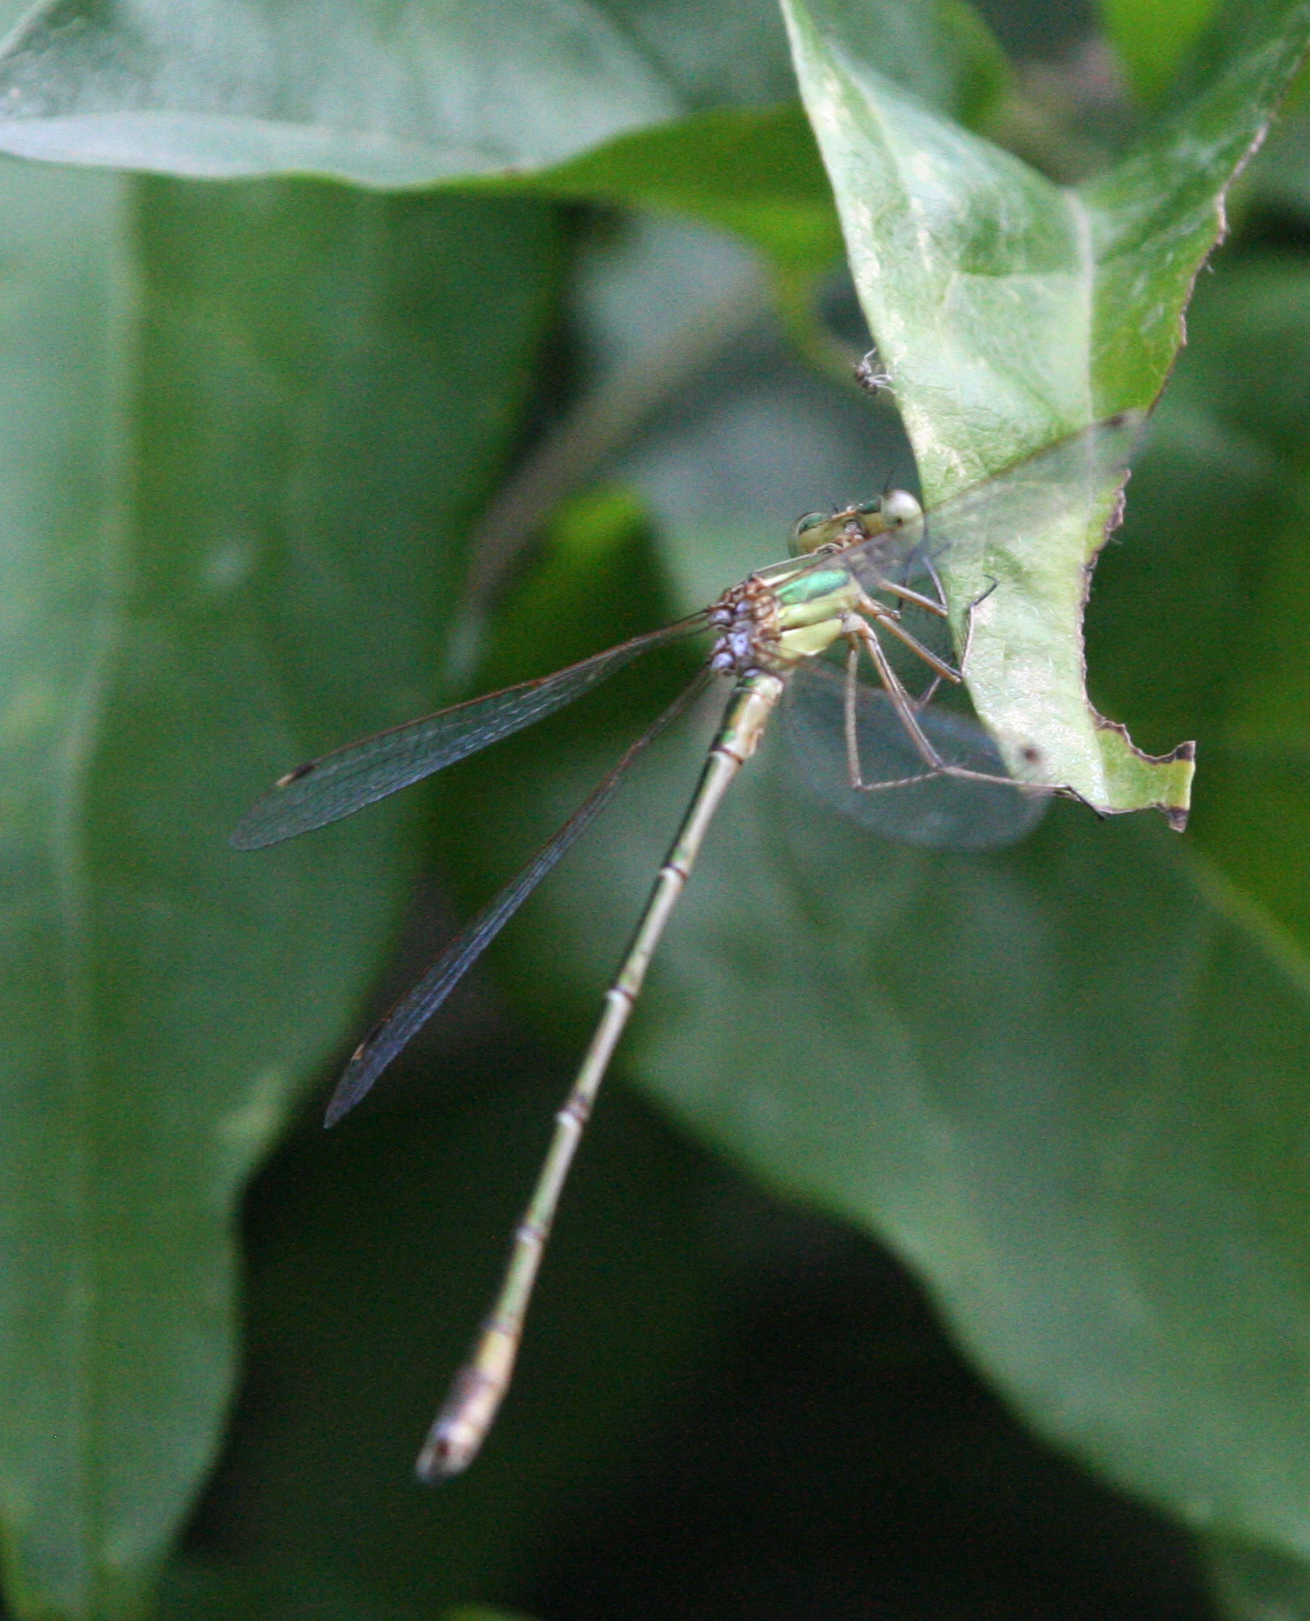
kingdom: Animalia
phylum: Arthropoda
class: Insecta
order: Odonata
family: Lestidae
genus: Lestes
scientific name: Lestes barbarus
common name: Migrant spreadwing
